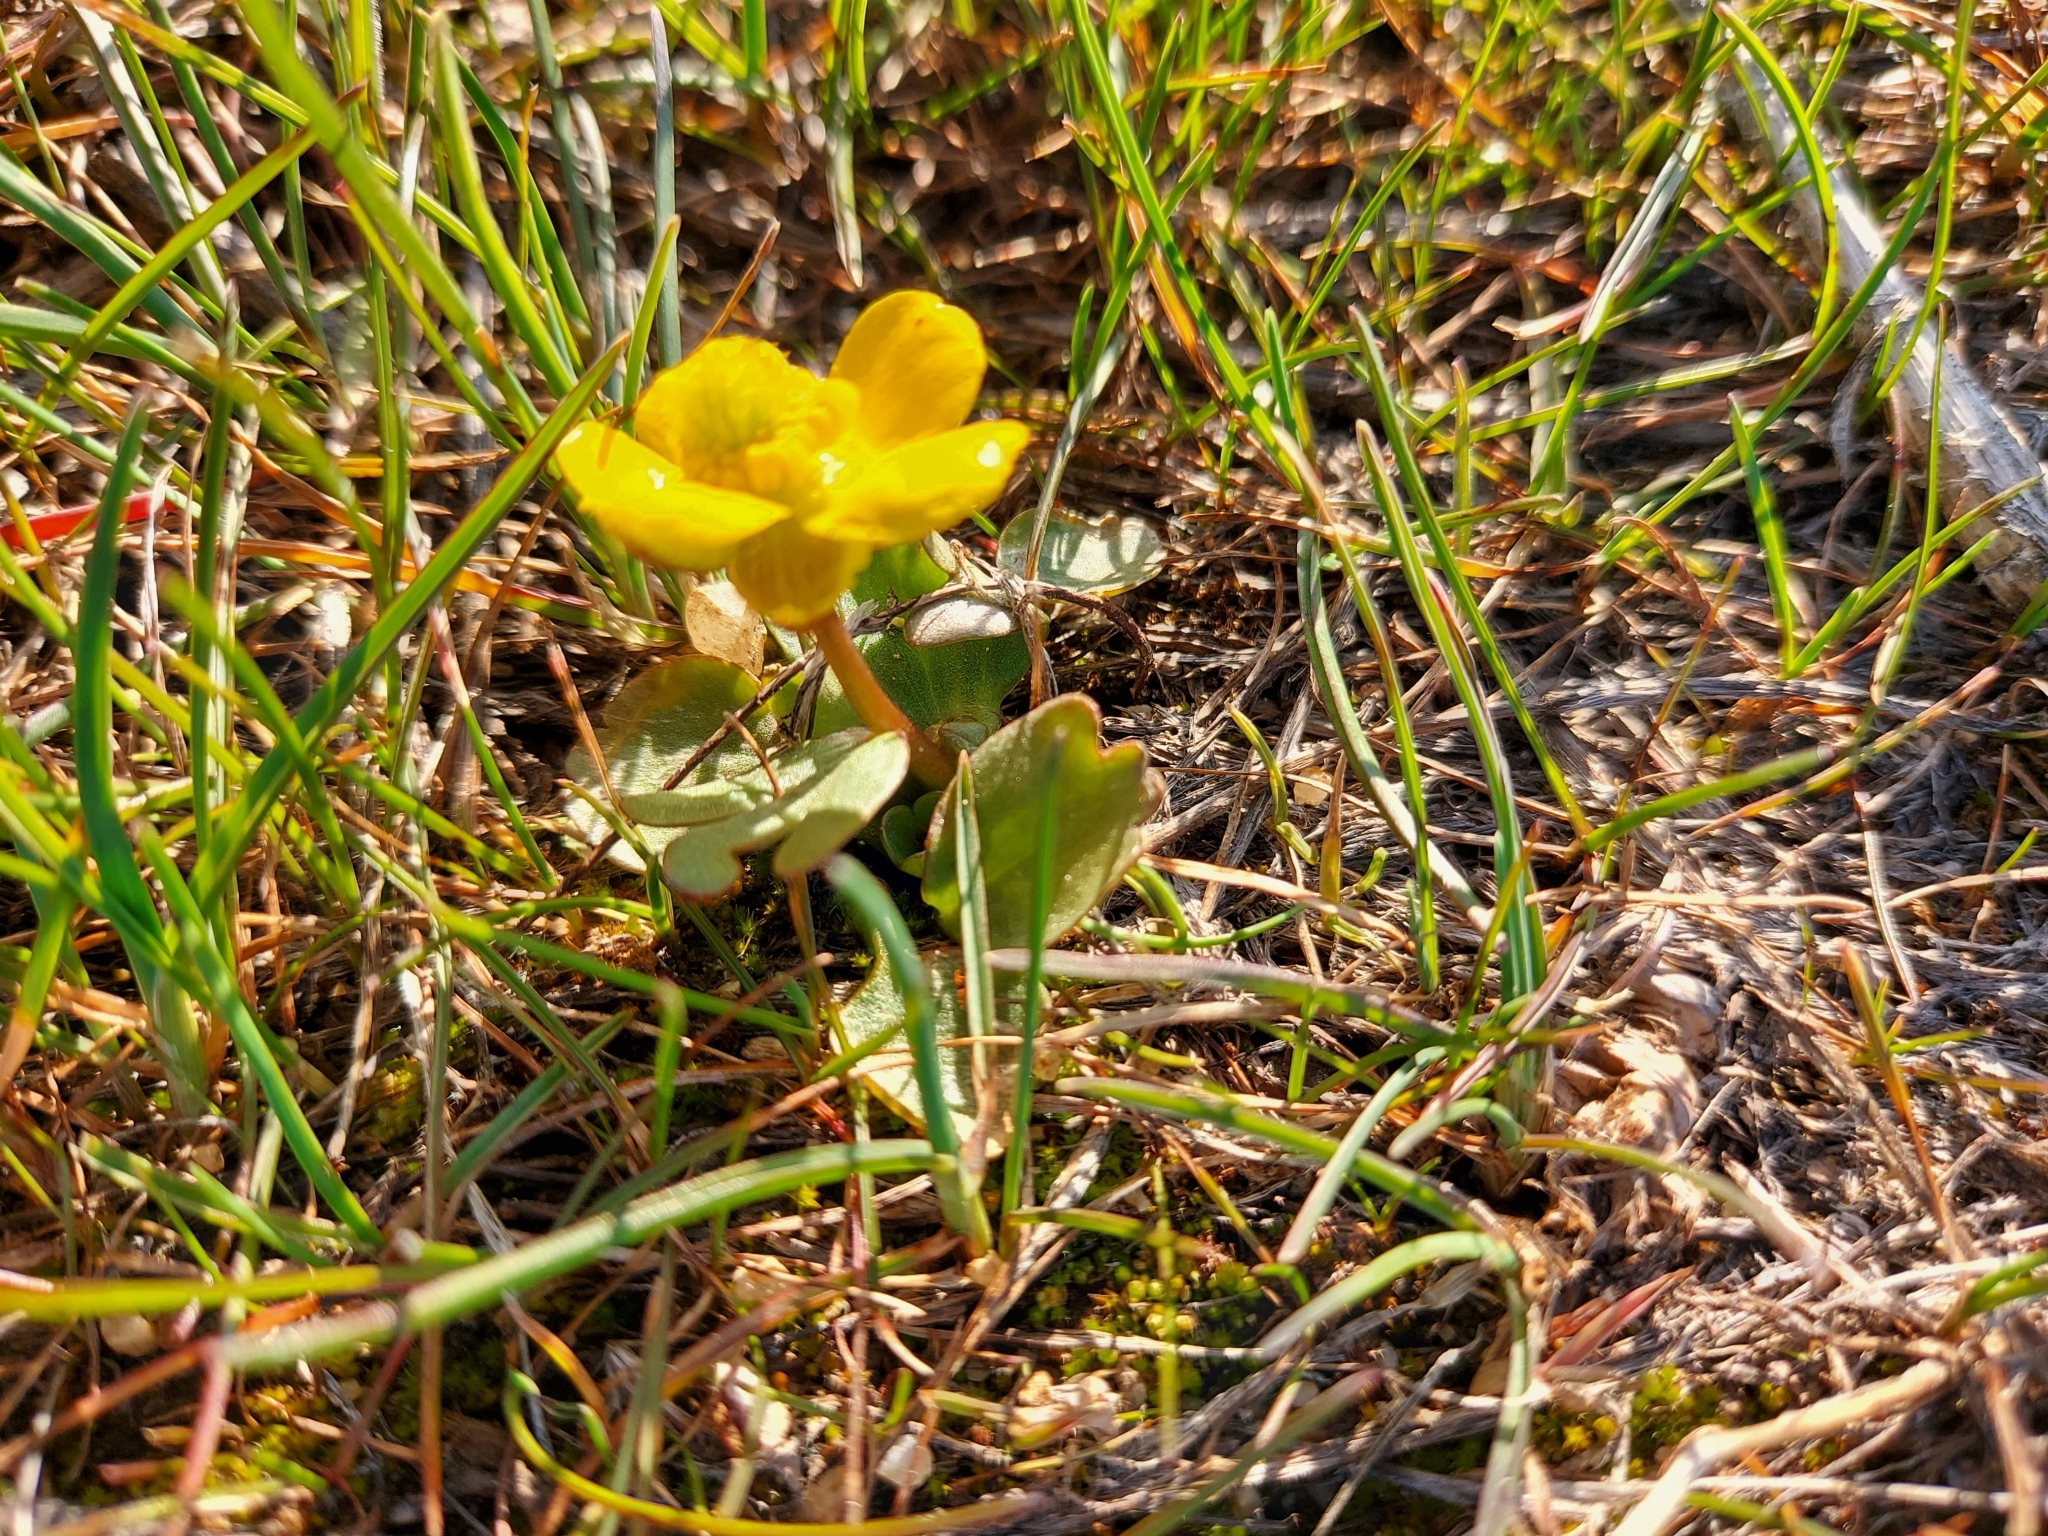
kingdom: Plantae
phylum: Tracheophyta
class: Magnoliopsida
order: Ranunculales
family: Ranunculaceae
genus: Ranunculus
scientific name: Ranunculus glaberrimus
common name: Sagebrush buttercup
